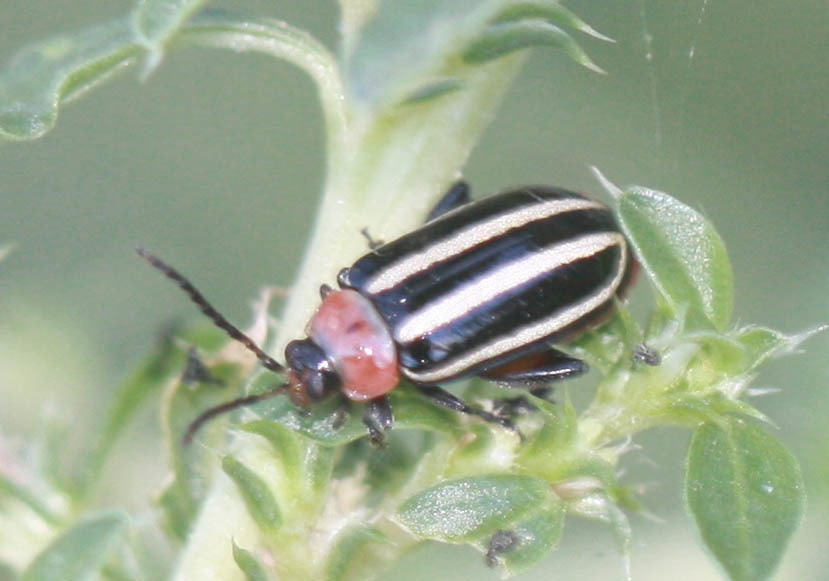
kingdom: Animalia
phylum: Arthropoda
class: Insecta
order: Coleoptera
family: Chrysomelidae
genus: Disonycha
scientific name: Disonycha glabrata
